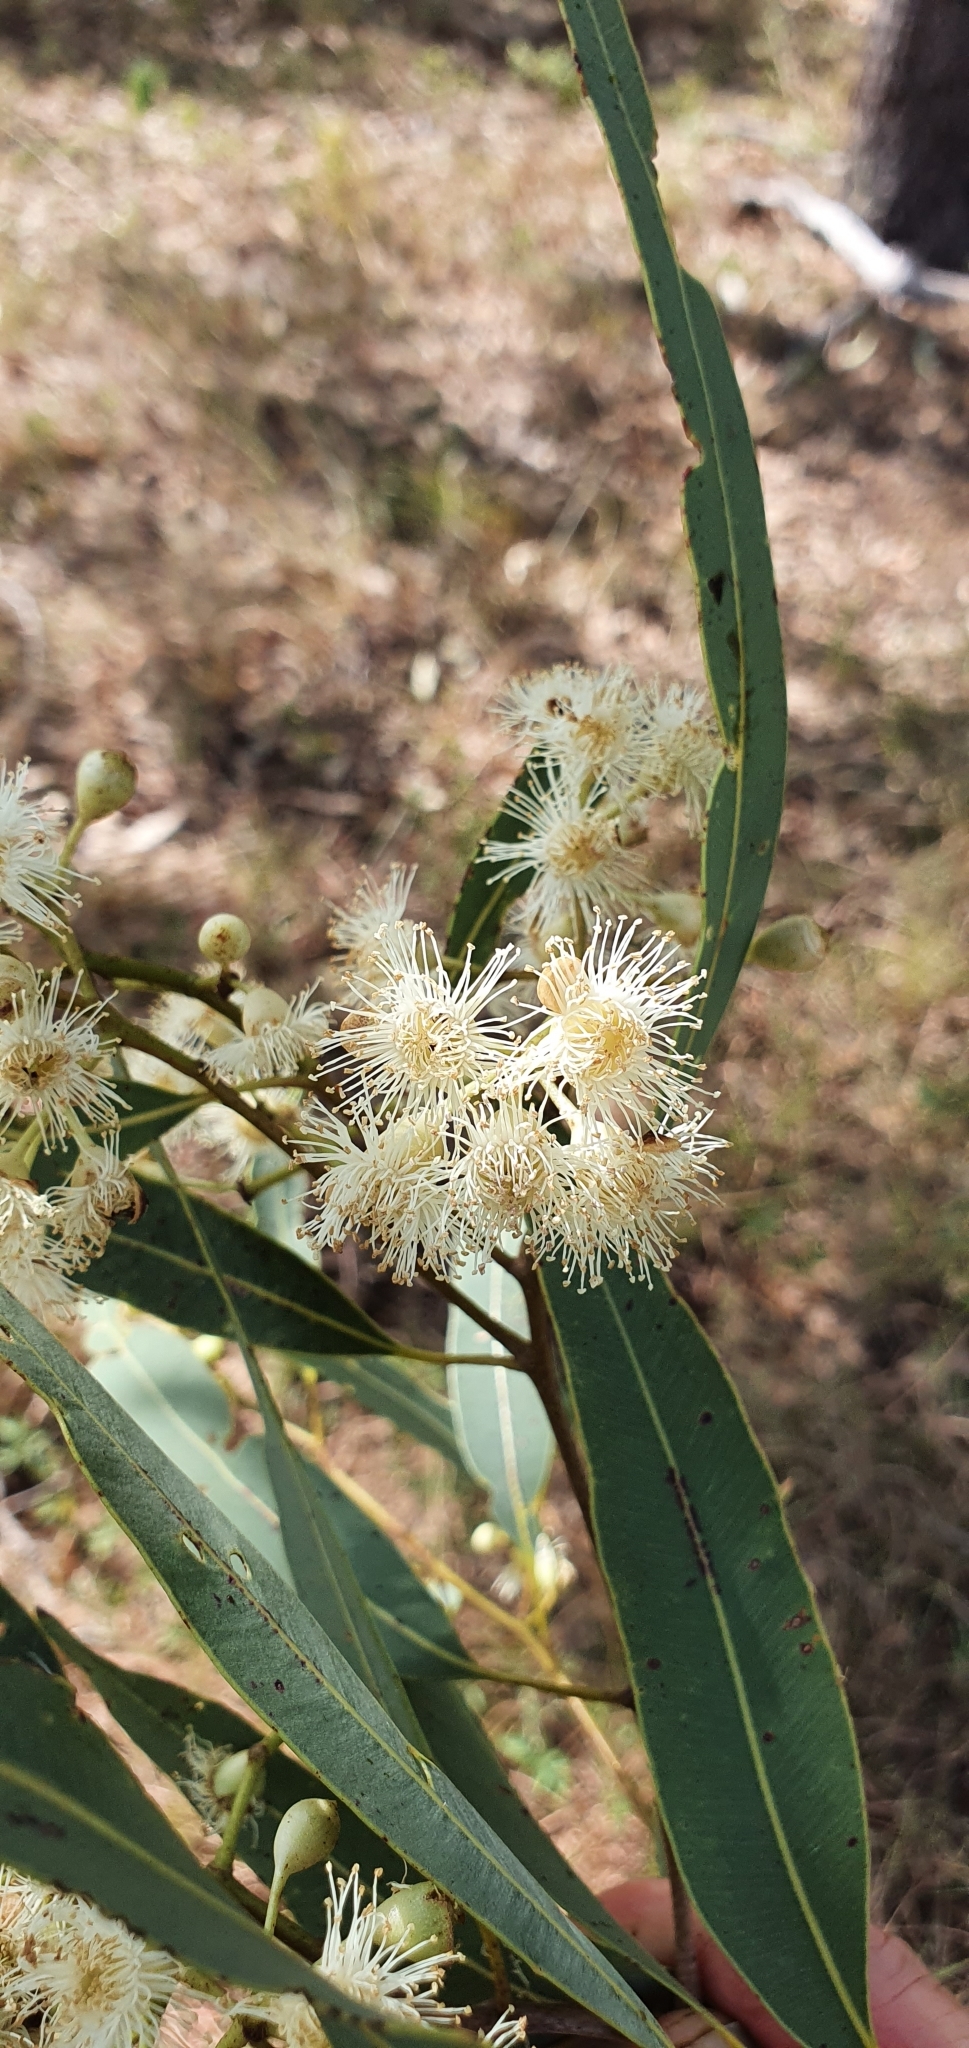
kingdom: Plantae
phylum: Tracheophyta
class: Magnoliopsida
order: Myrtales
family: Myrtaceae
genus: Corymbia
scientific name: Corymbia erythrophloia
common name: Red bloodwood
